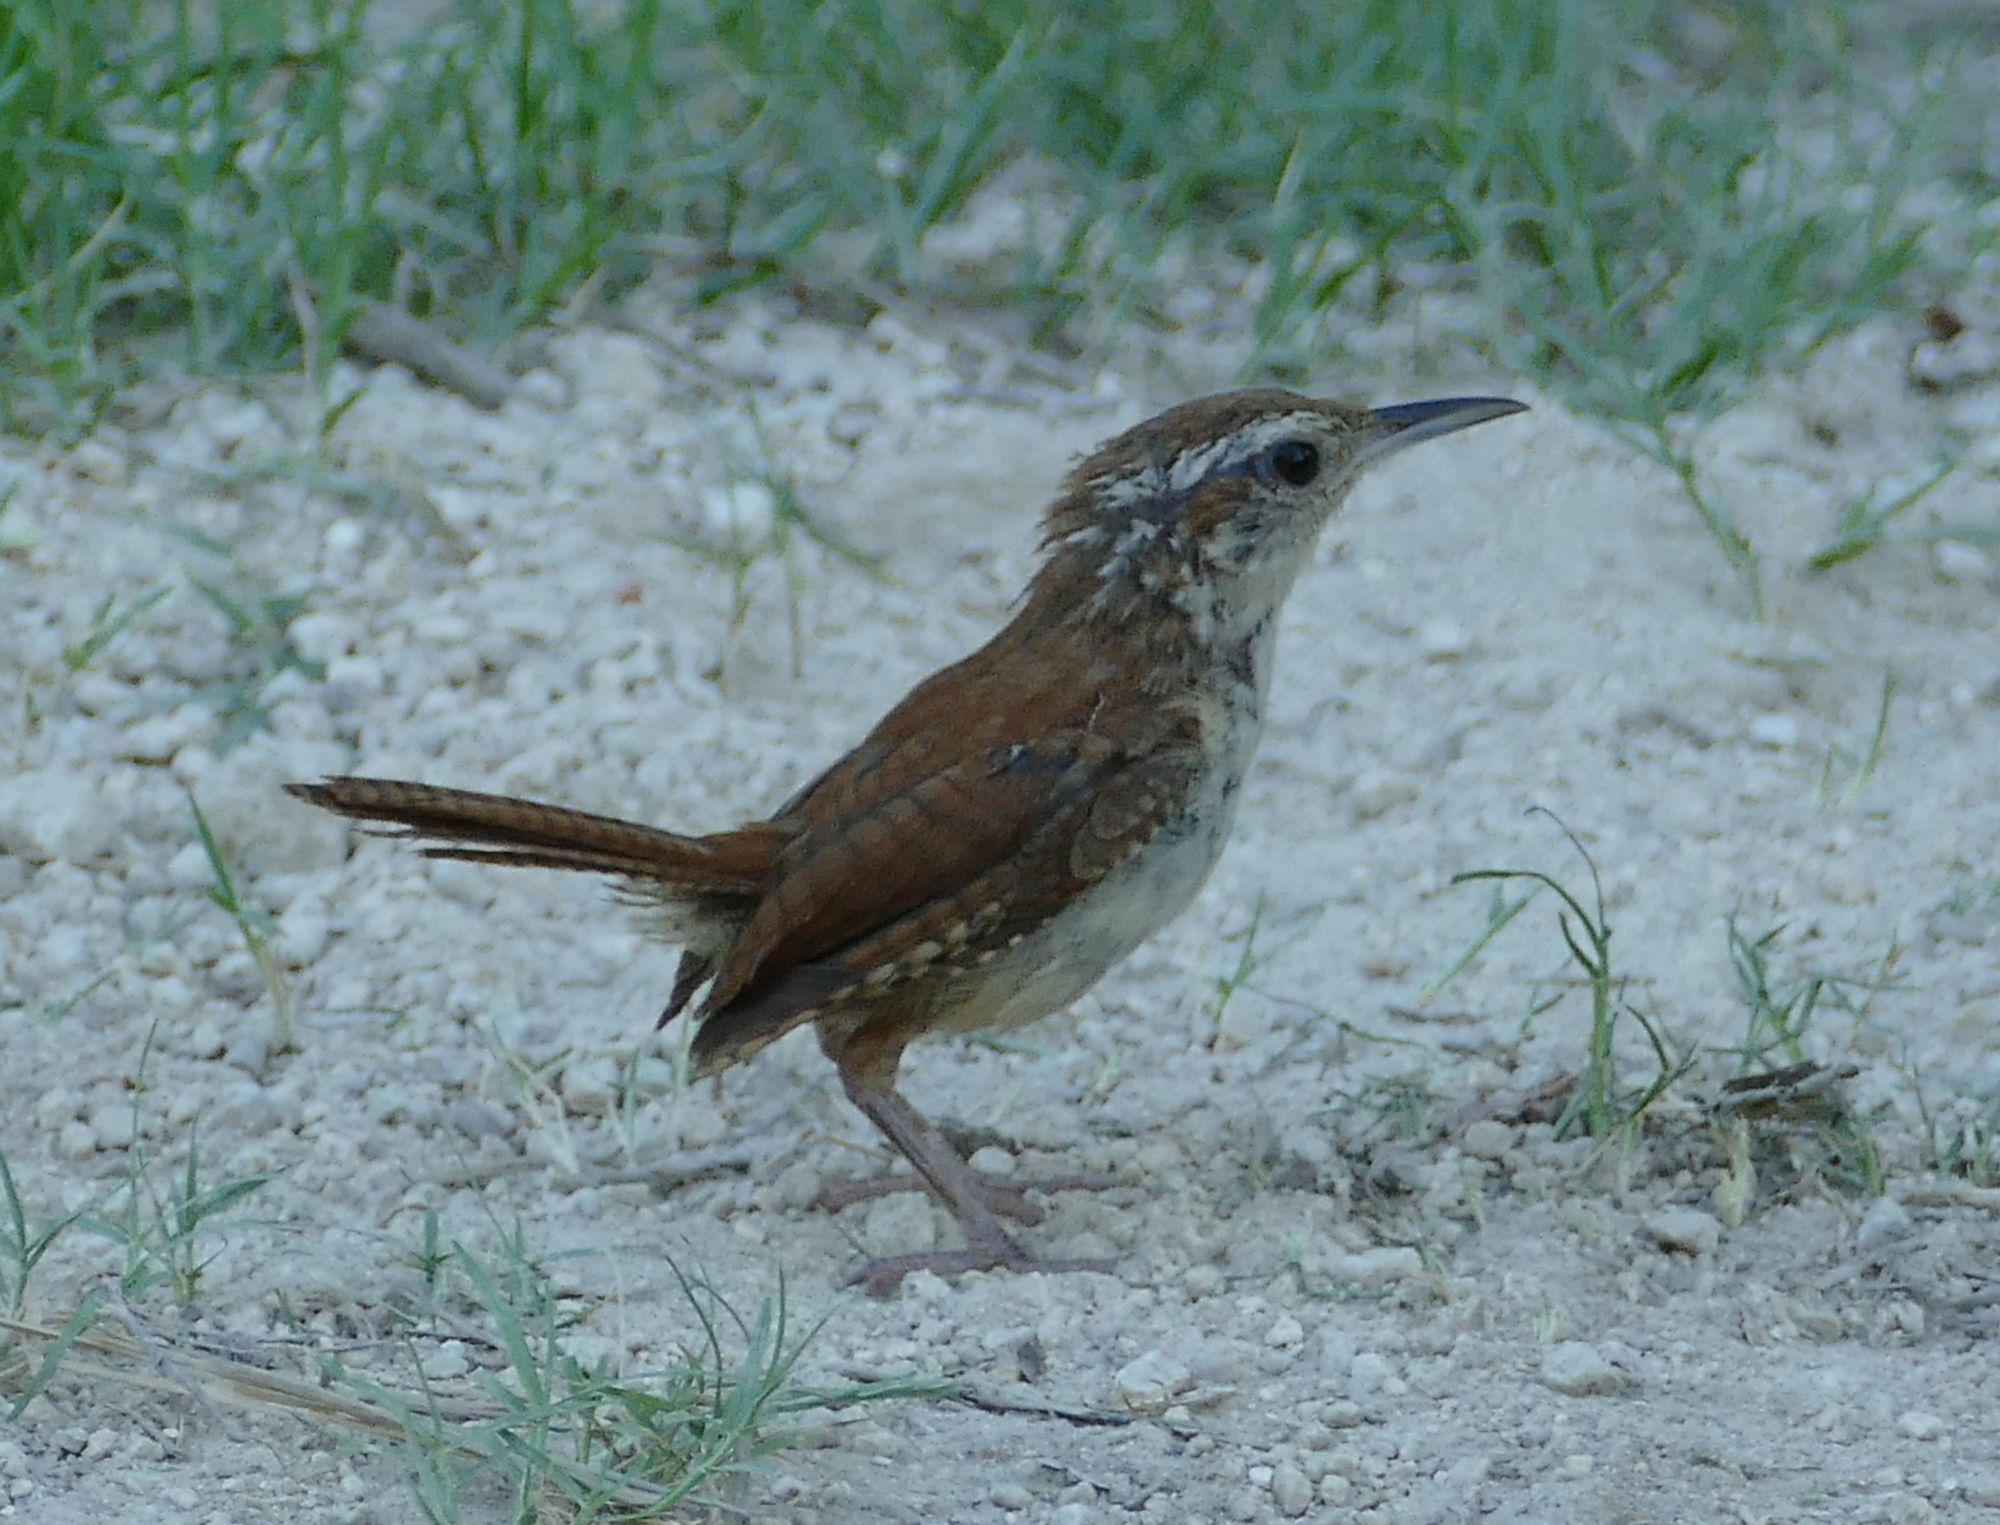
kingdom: Animalia
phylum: Chordata
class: Aves
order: Passeriformes
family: Troglodytidae
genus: Thryothorus
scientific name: Thryothorus ludovicianus
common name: Carolina wren
